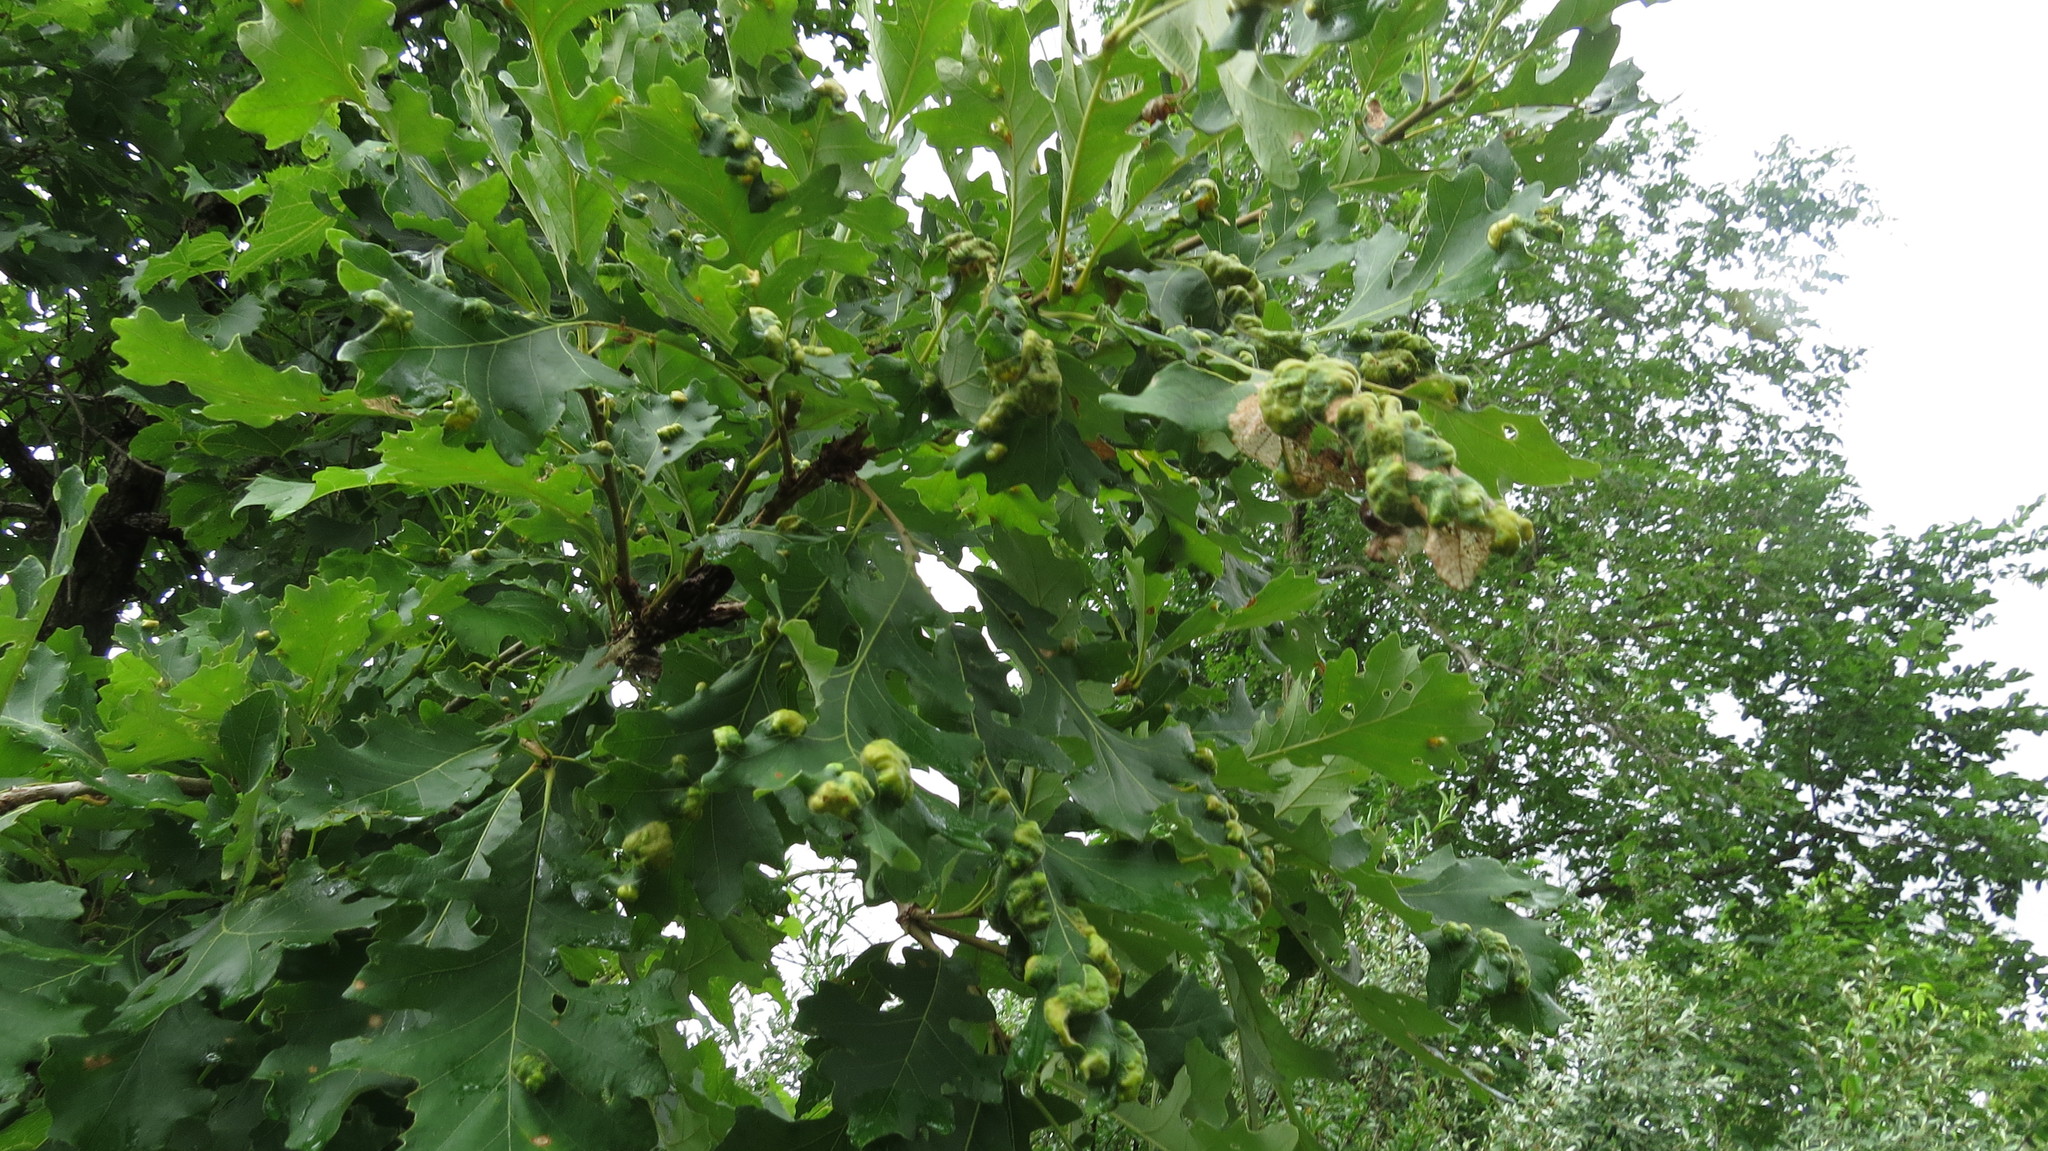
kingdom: Animalia
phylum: Arthropoda
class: Arachnida
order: Trombidiformes
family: Eriophyidae
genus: Aceria
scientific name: Aceria quercina
